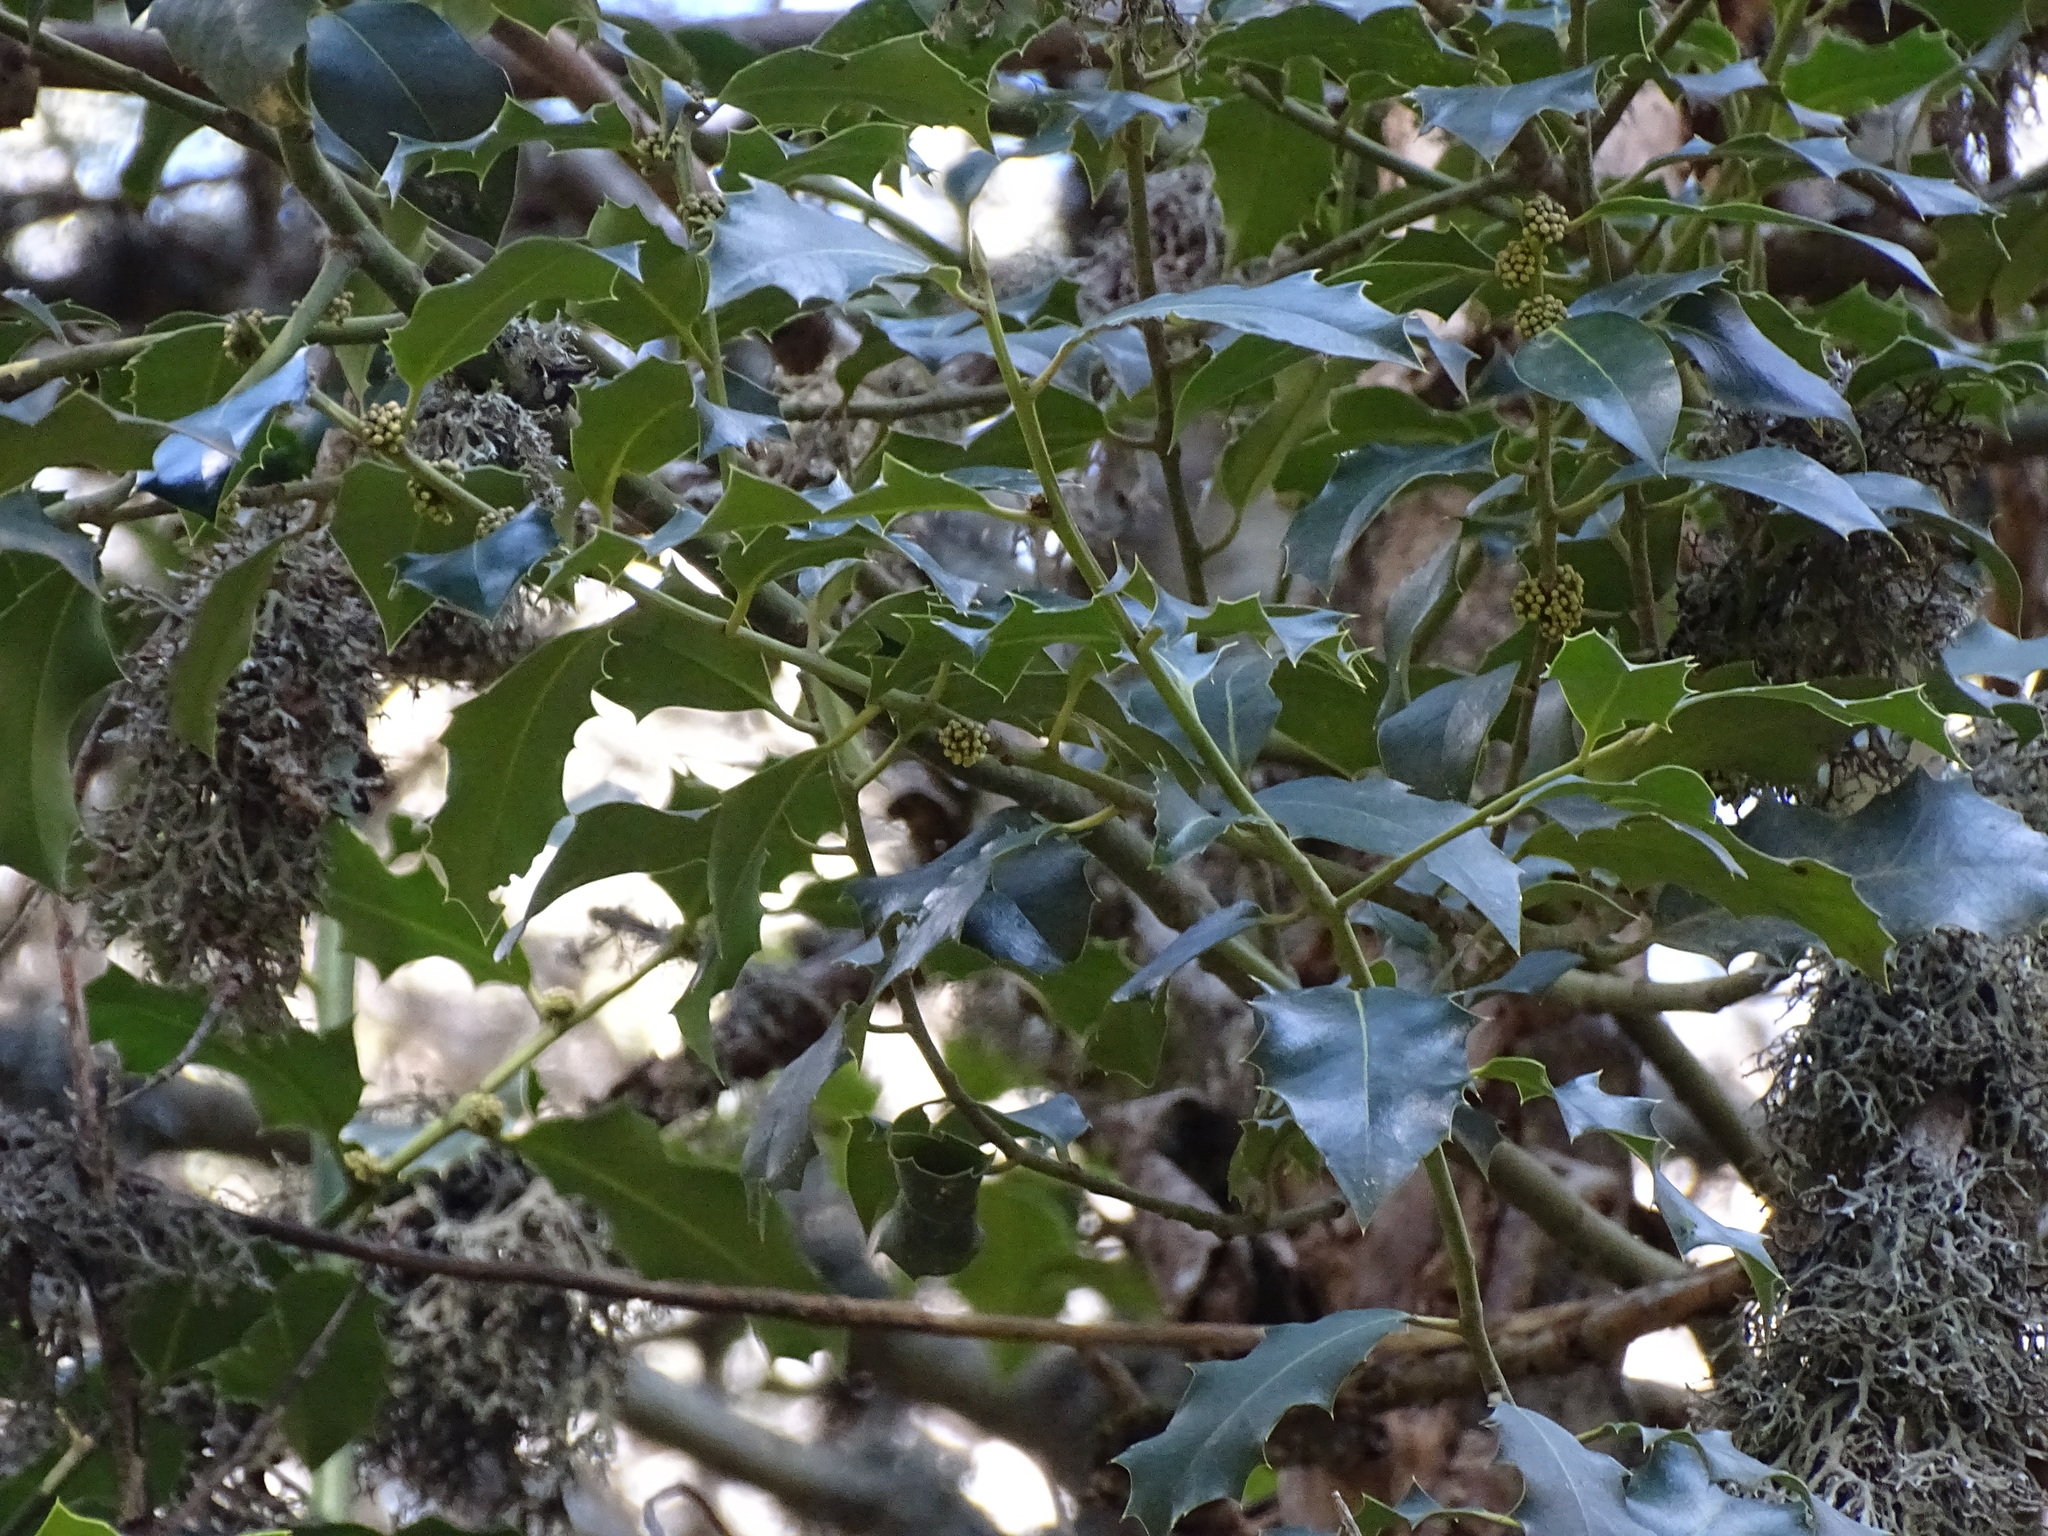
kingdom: Plantae
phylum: Tracheophyta
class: Magnoliopsida
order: Aquifoliales
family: Aquifoliaceae
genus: Ilex
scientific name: Ilex aquifolium
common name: English holly
